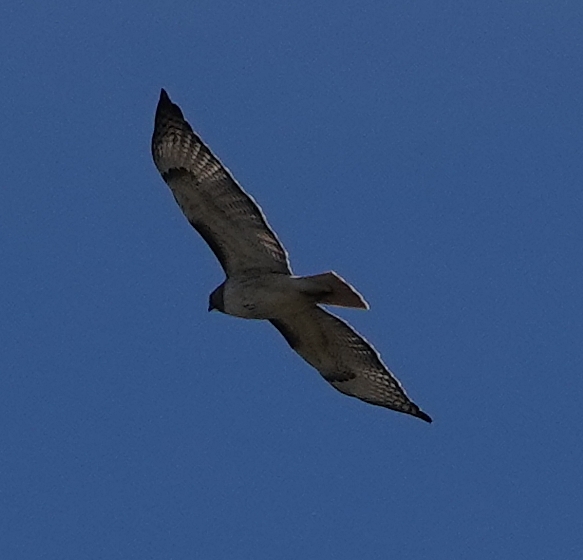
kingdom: Animalia
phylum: Chordata
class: Aves
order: Accipitriformes
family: Accipitridae
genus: Buteo
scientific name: Buteo jamaicensis
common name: Red-tailed hawk
